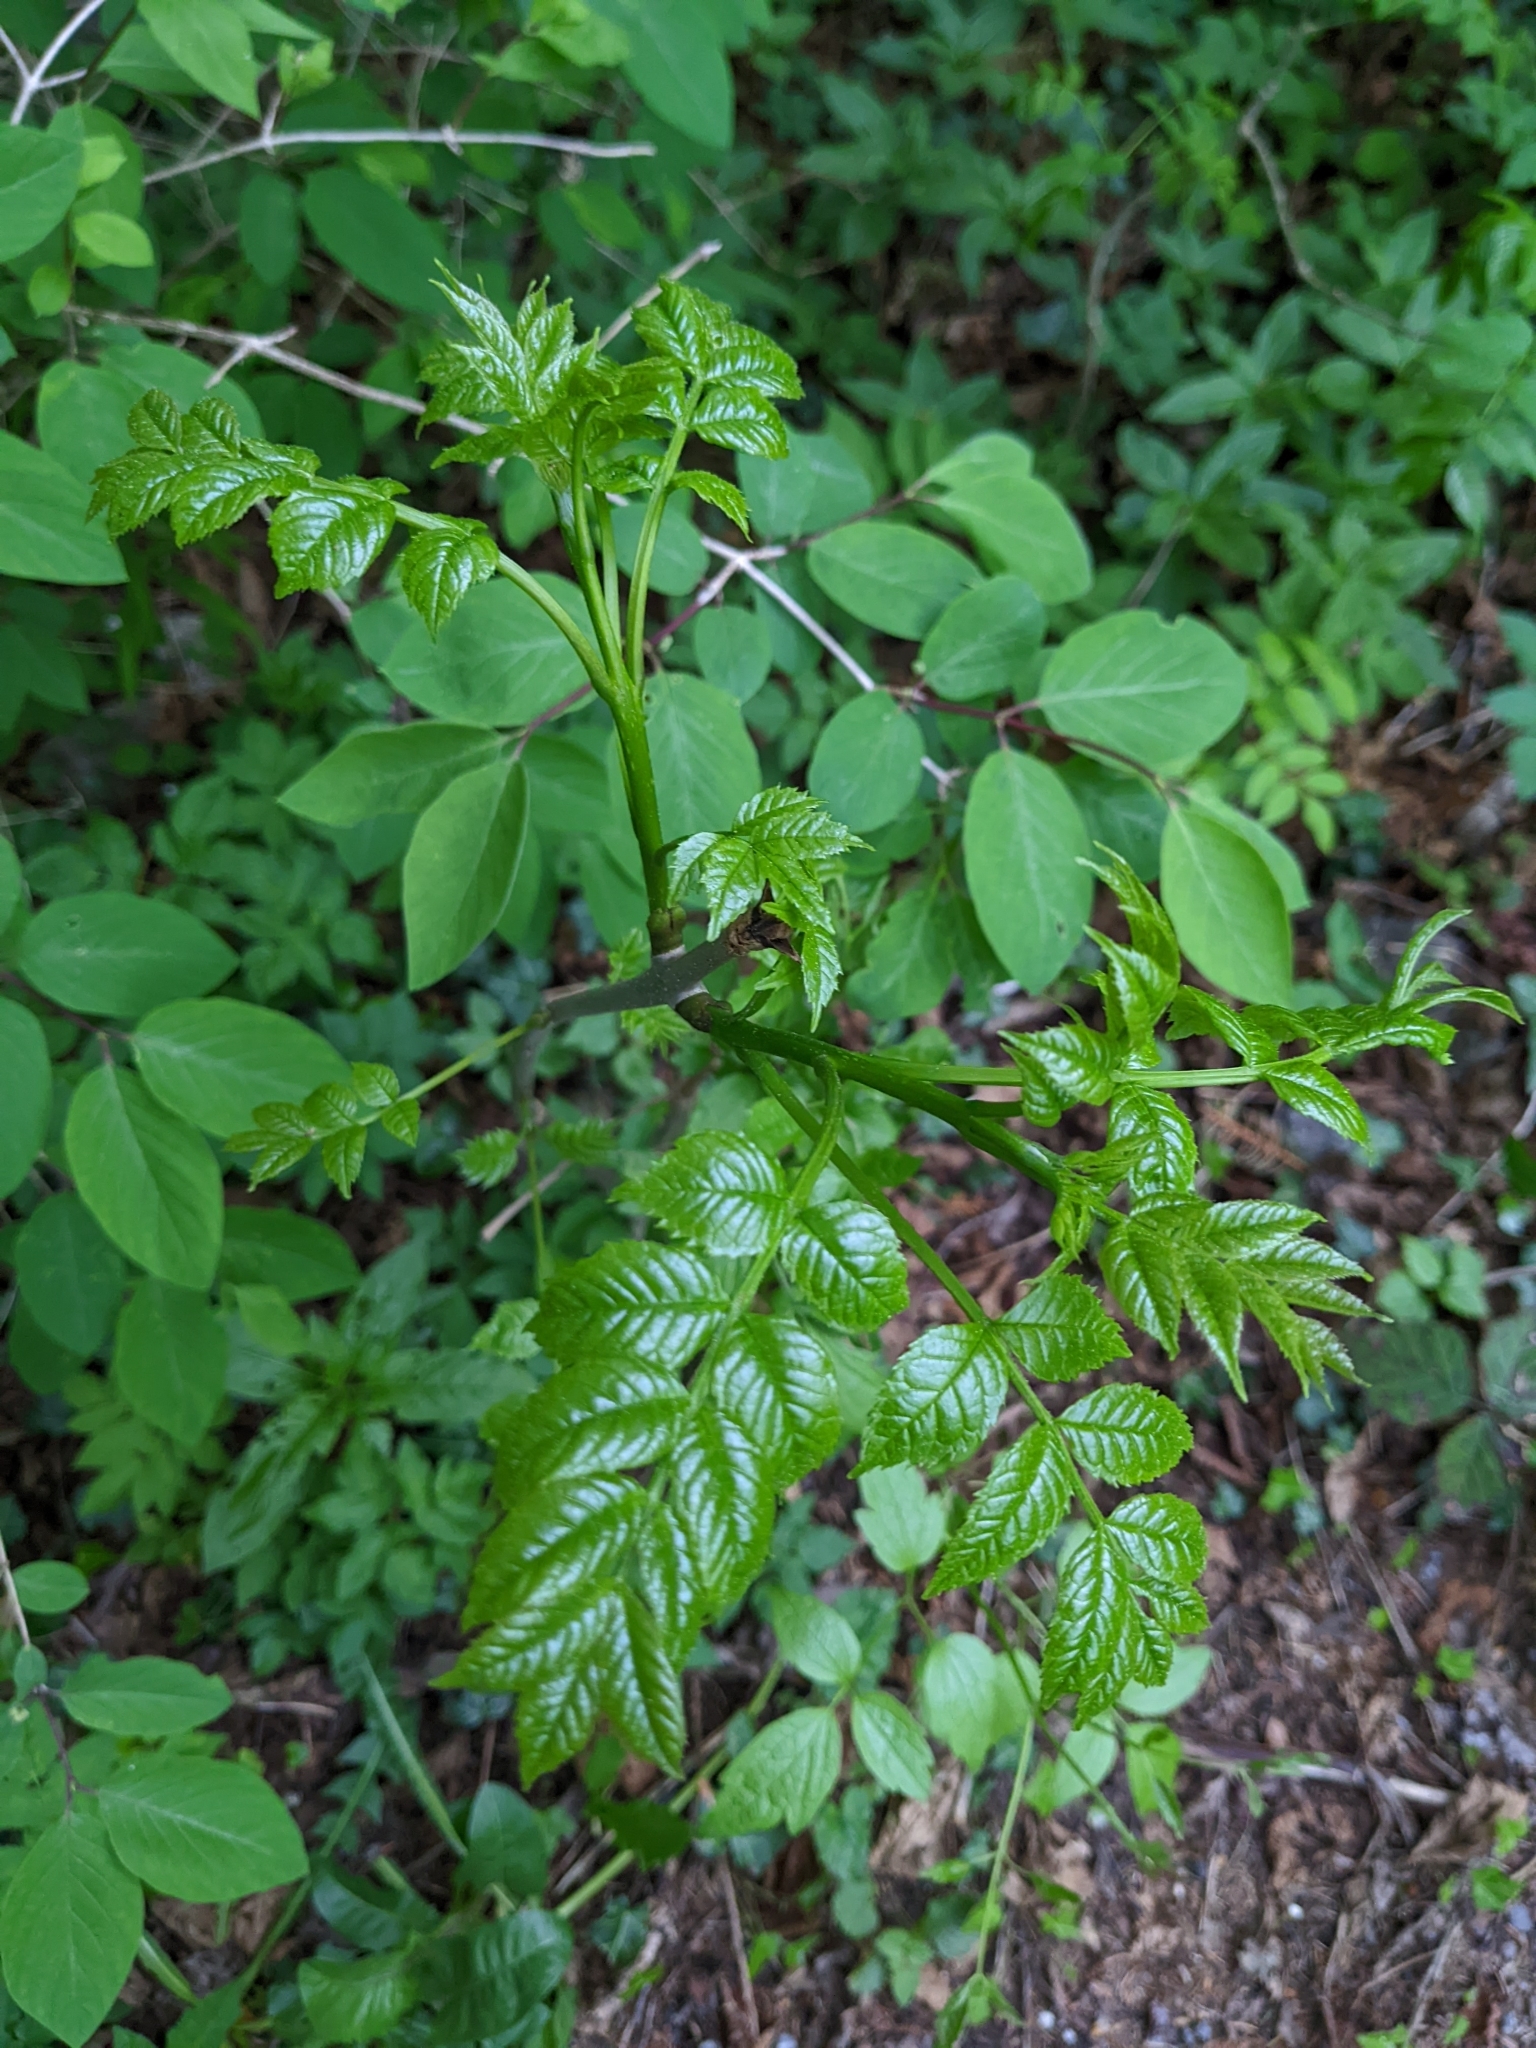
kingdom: Plantae
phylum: Tracheophyta
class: Magnoliopsida
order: Lamiales
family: Oleaceae
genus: Fraxinus
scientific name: Fraxinus excelsior
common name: European ash
